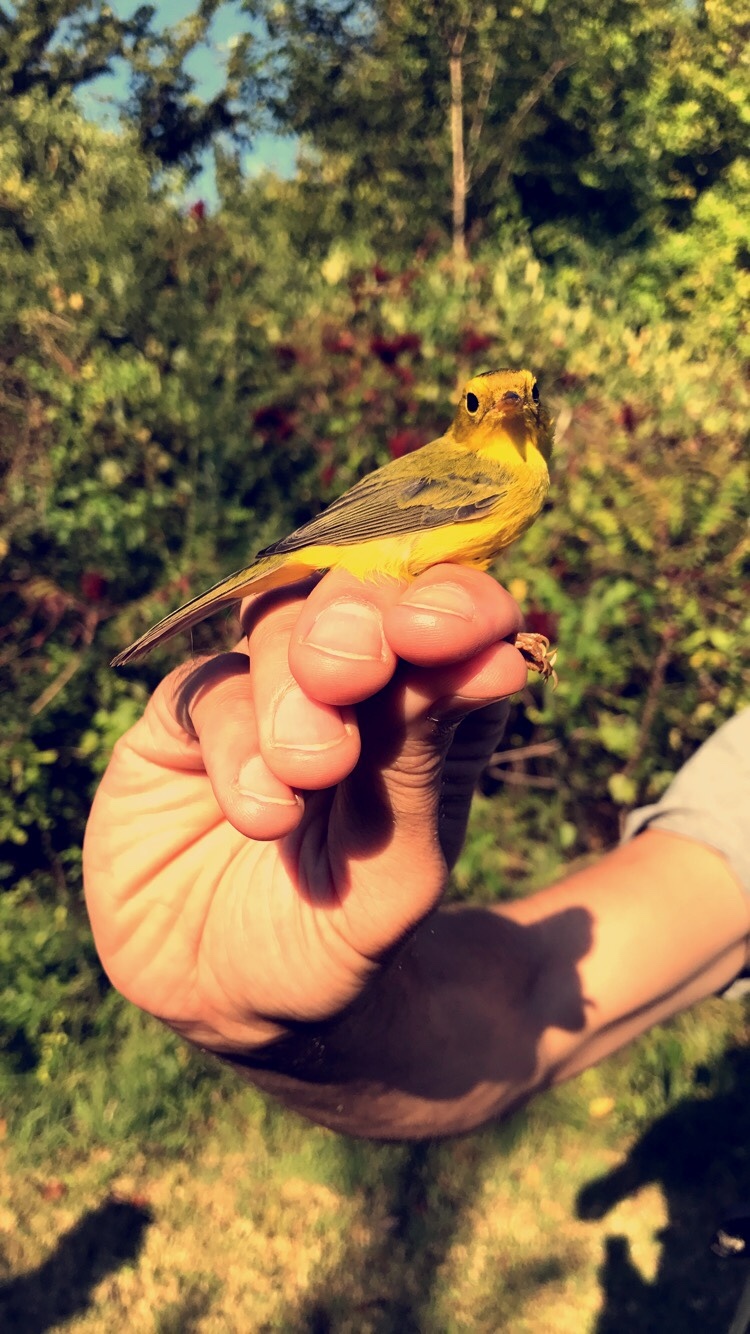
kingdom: Animalia
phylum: Chordata
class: Aves
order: Passeriformes
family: Parulidae
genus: Cardellina
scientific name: Cardellina pusilla
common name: Wilson's warbler
